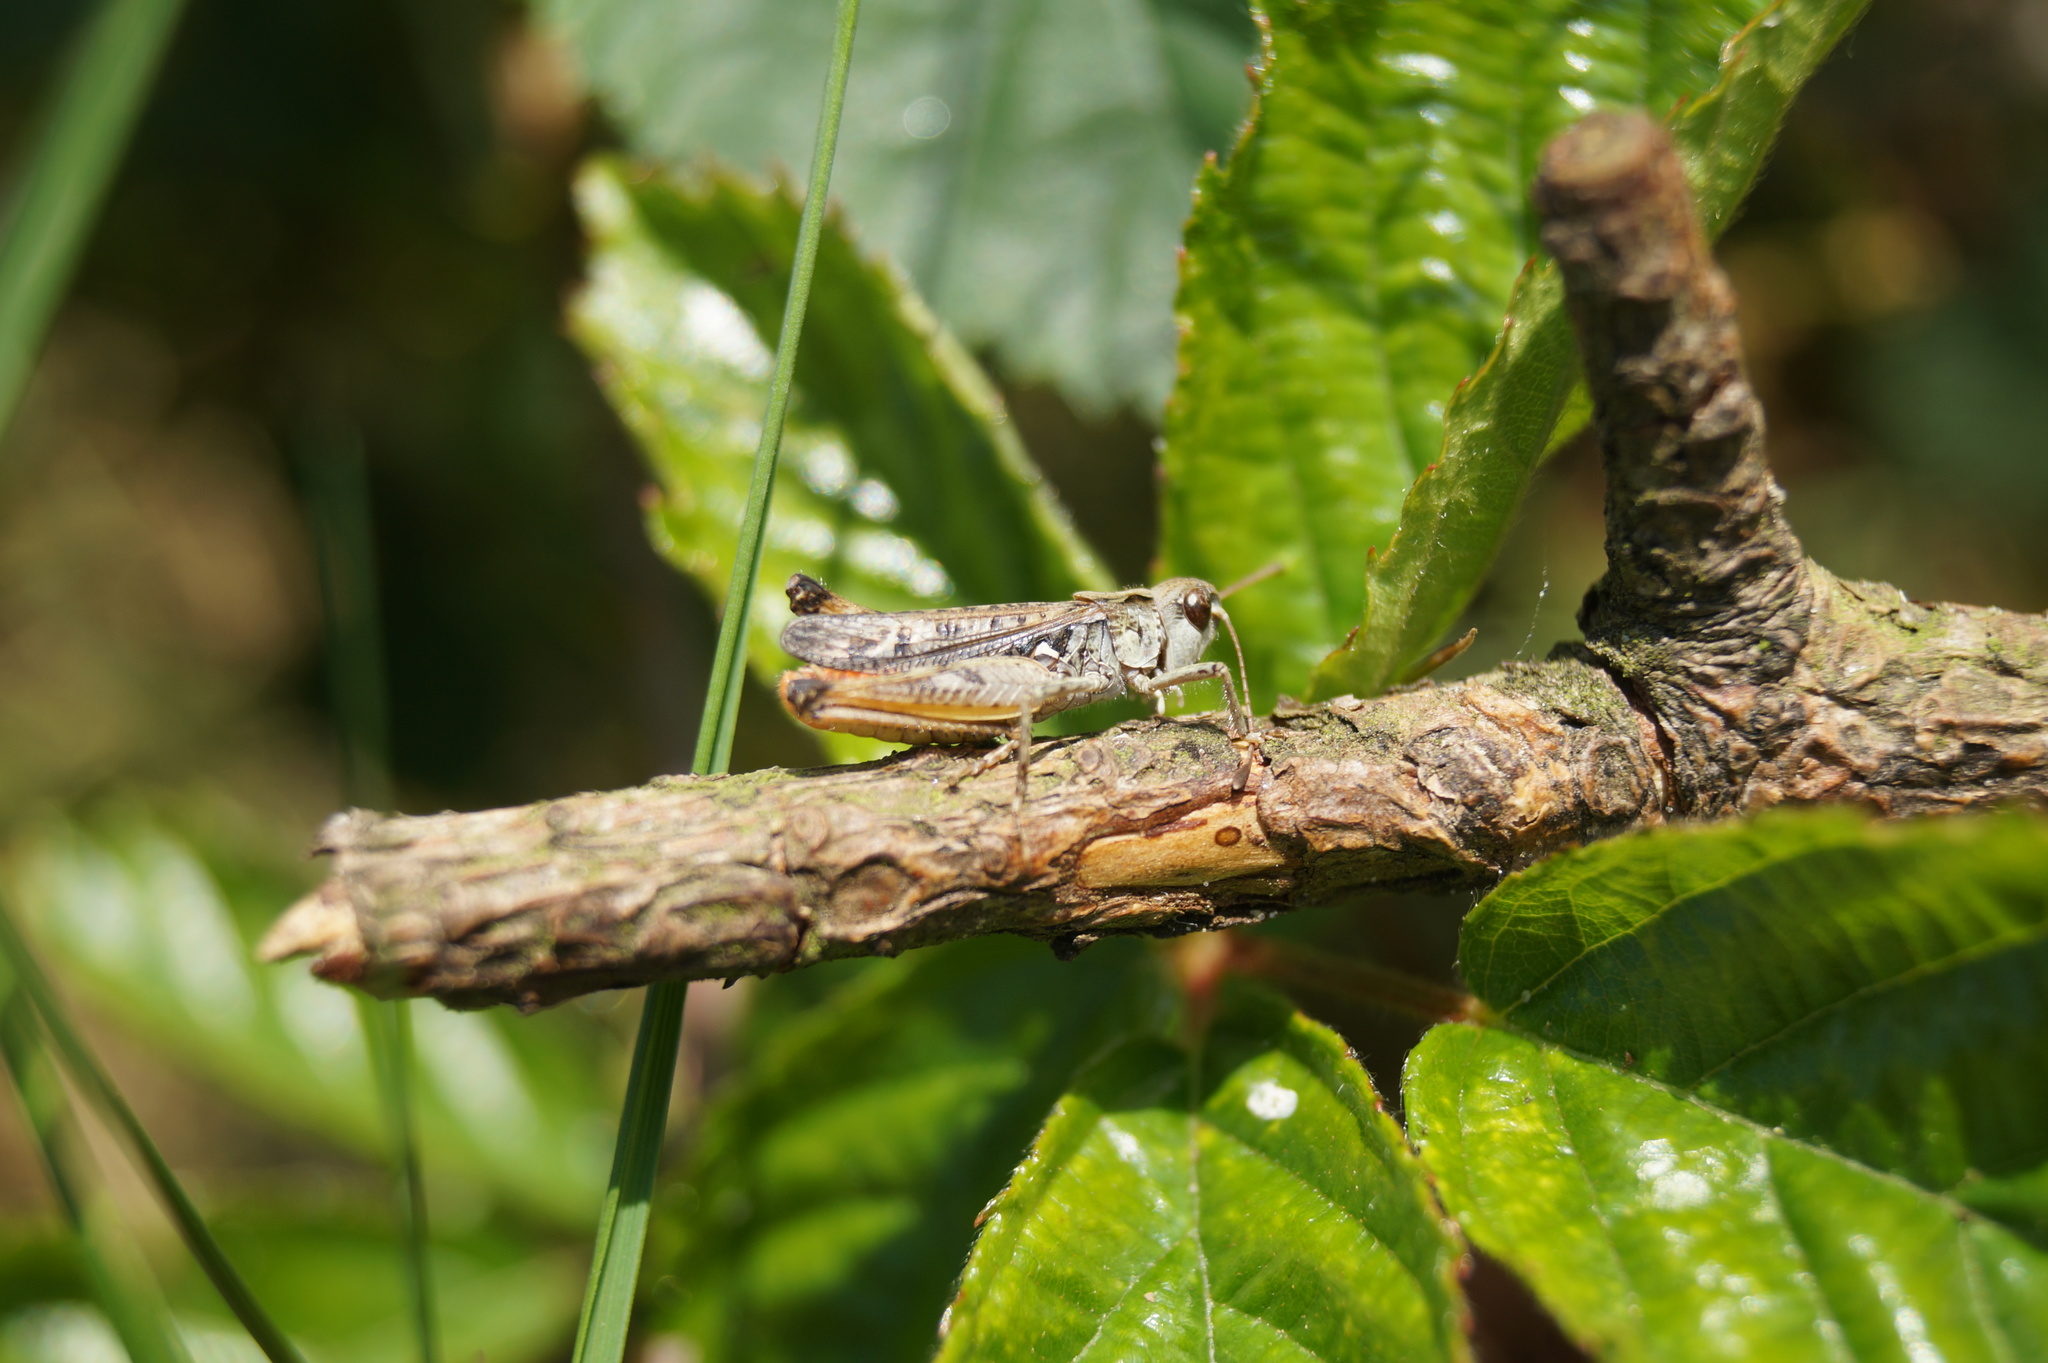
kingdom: Animalia
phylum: Arthropoda
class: Insecta
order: Orthoptera
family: Acrididae
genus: Myrmeleotettix
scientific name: Myrmeleotettix maculatus
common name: Mottled grasshopper
